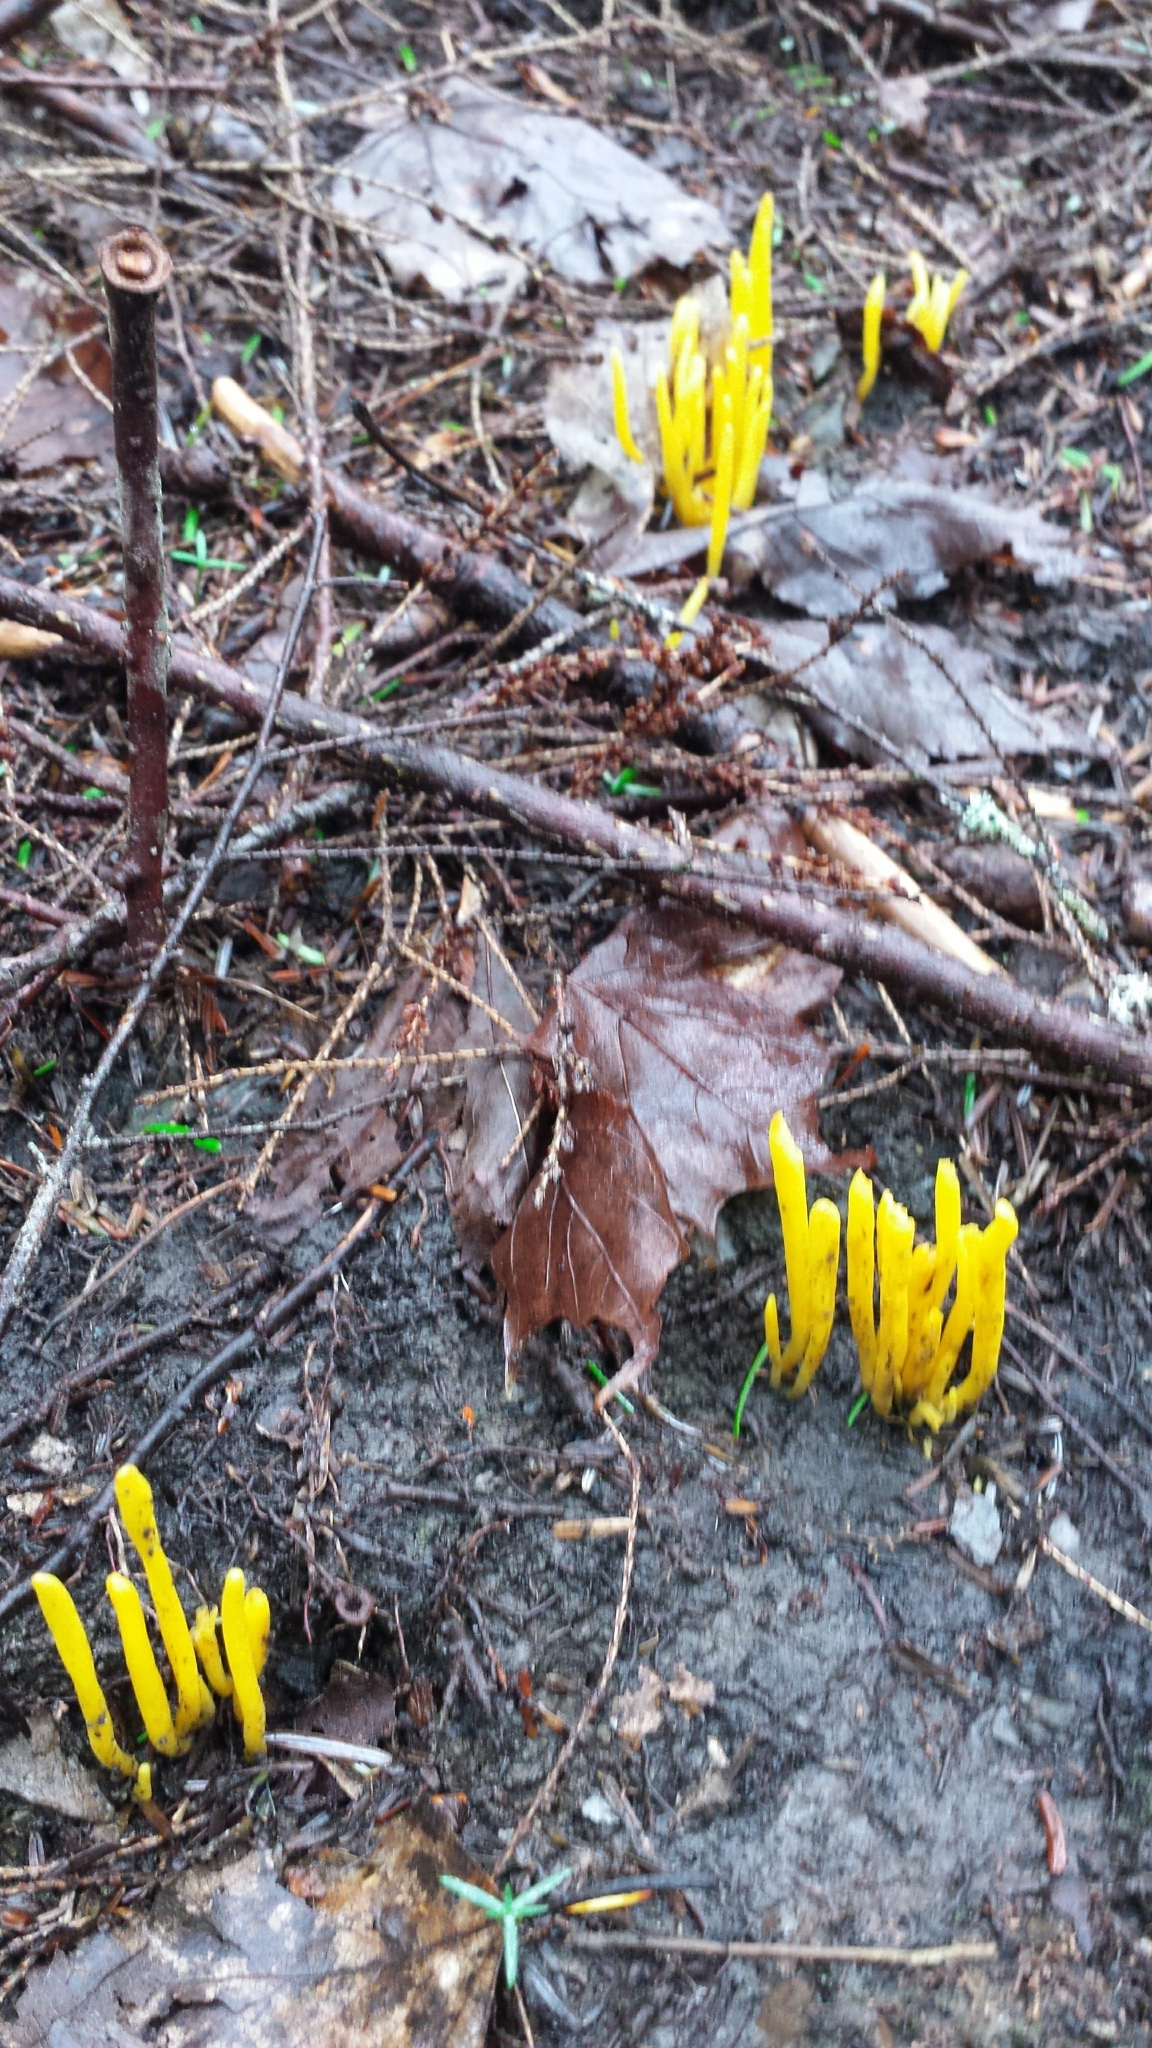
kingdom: Fungi
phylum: Basidiomycota
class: Agaricomycetes
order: Agaricales
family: Clavariaceae
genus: Clavulinopsis
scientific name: Clavulinopsis fusiformis
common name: Golden spindles
